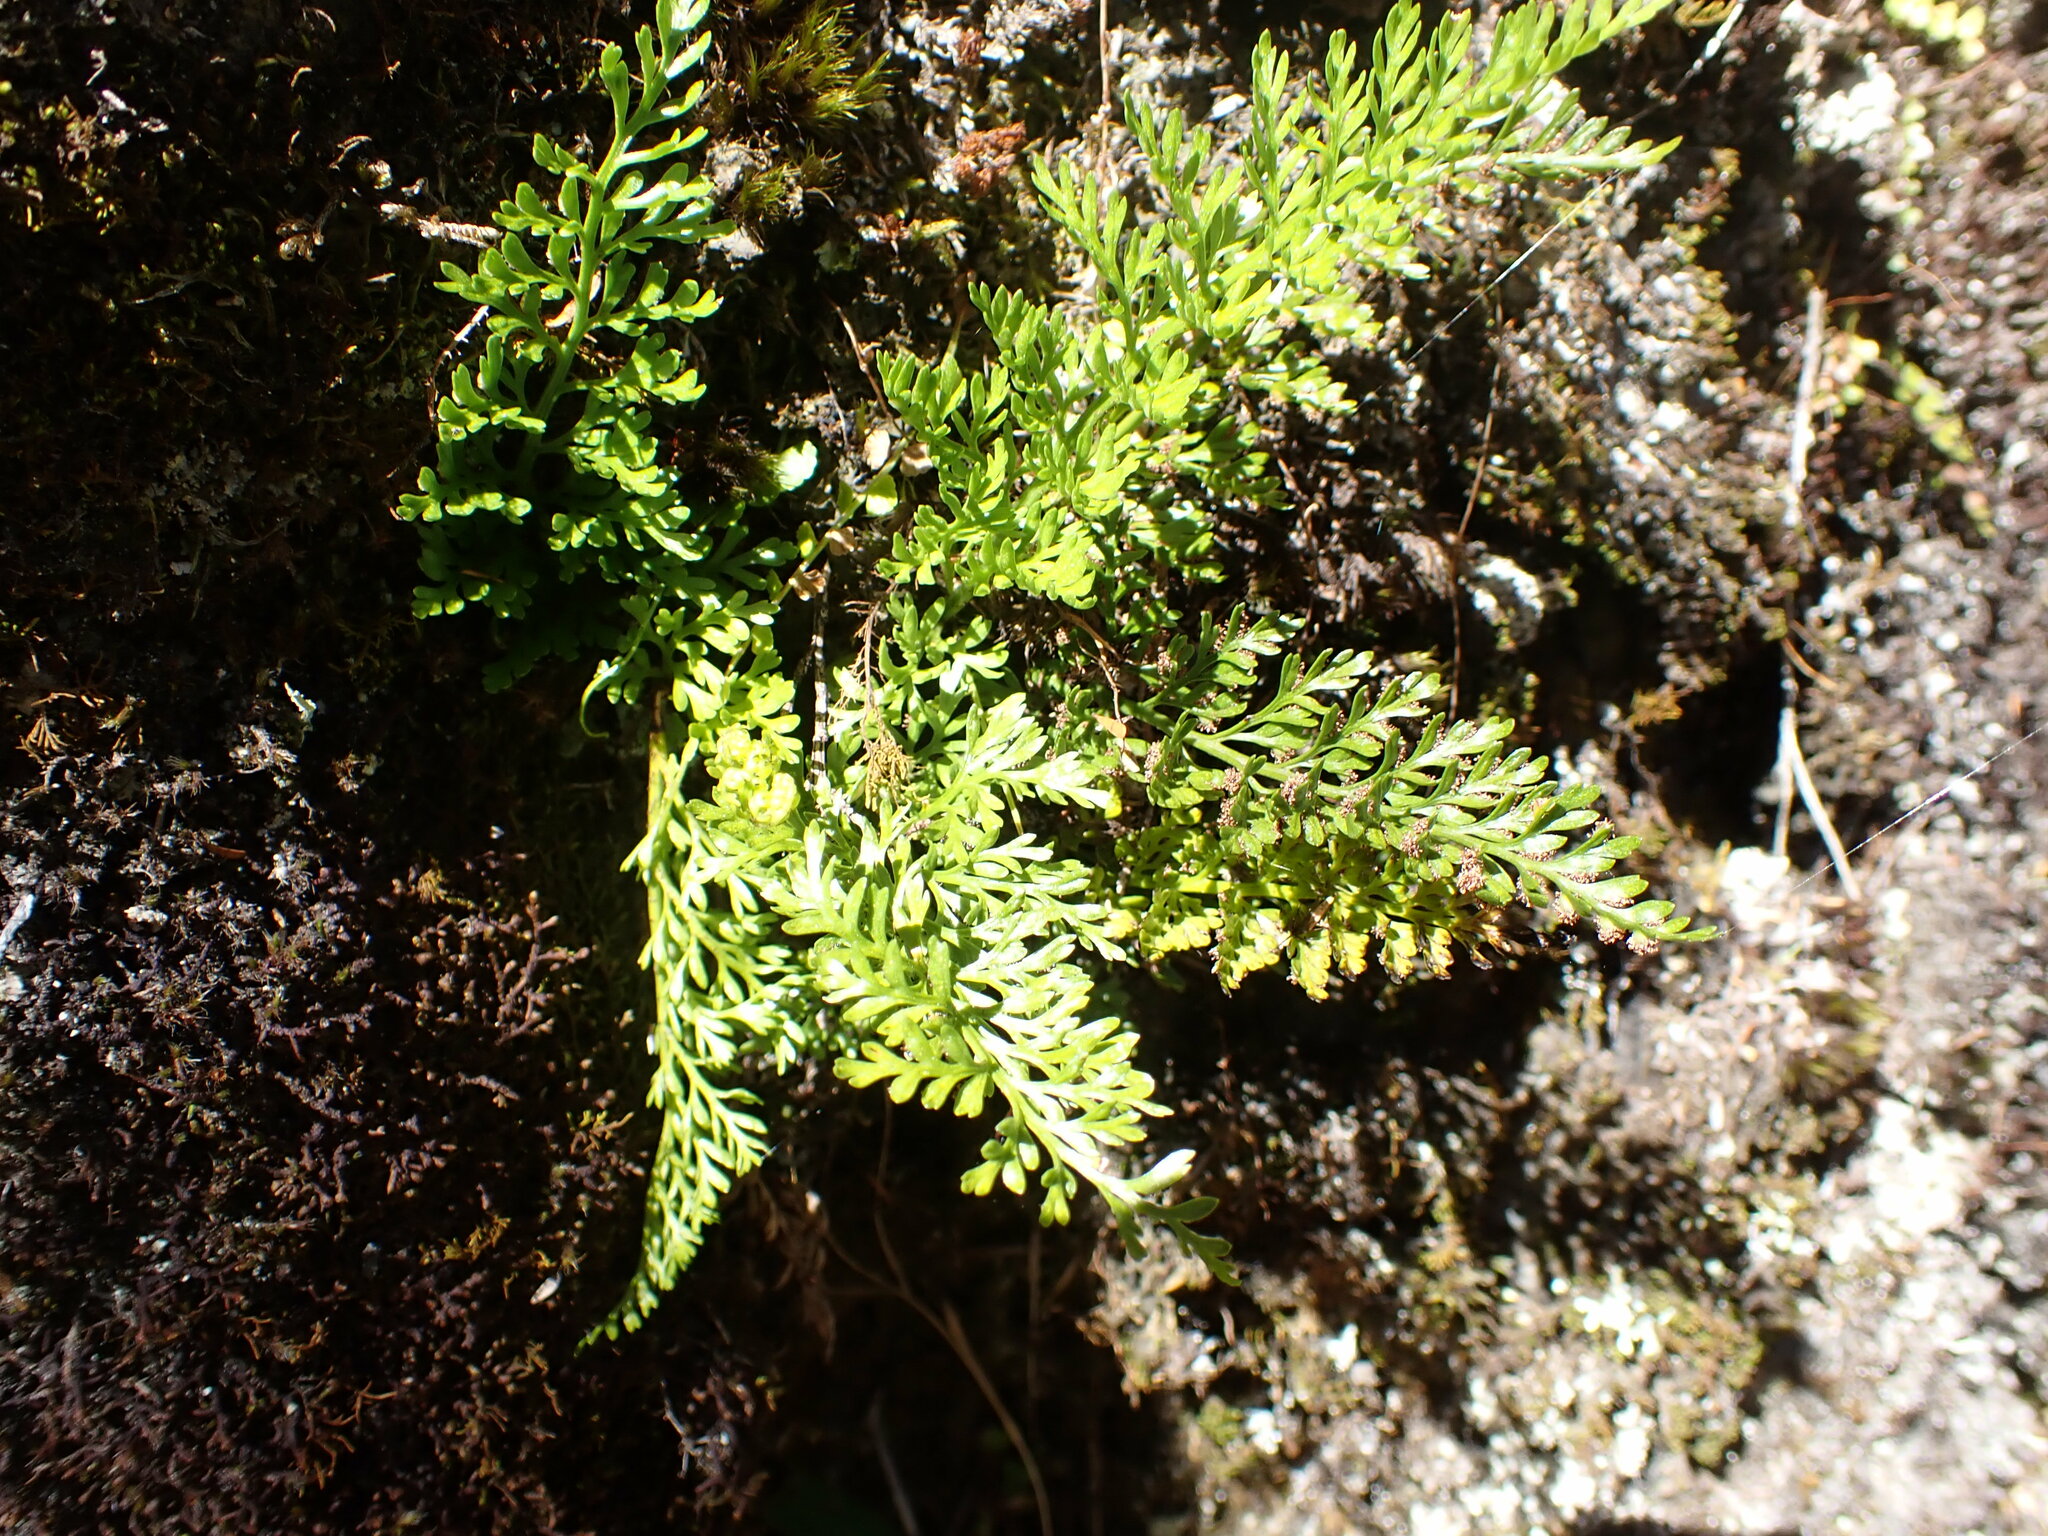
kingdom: Plantae
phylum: Tracheophyta
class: Polypodiopsida
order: Polypodiales
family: Aspleniaceae
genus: Asplenium
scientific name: Asplenium richardii
